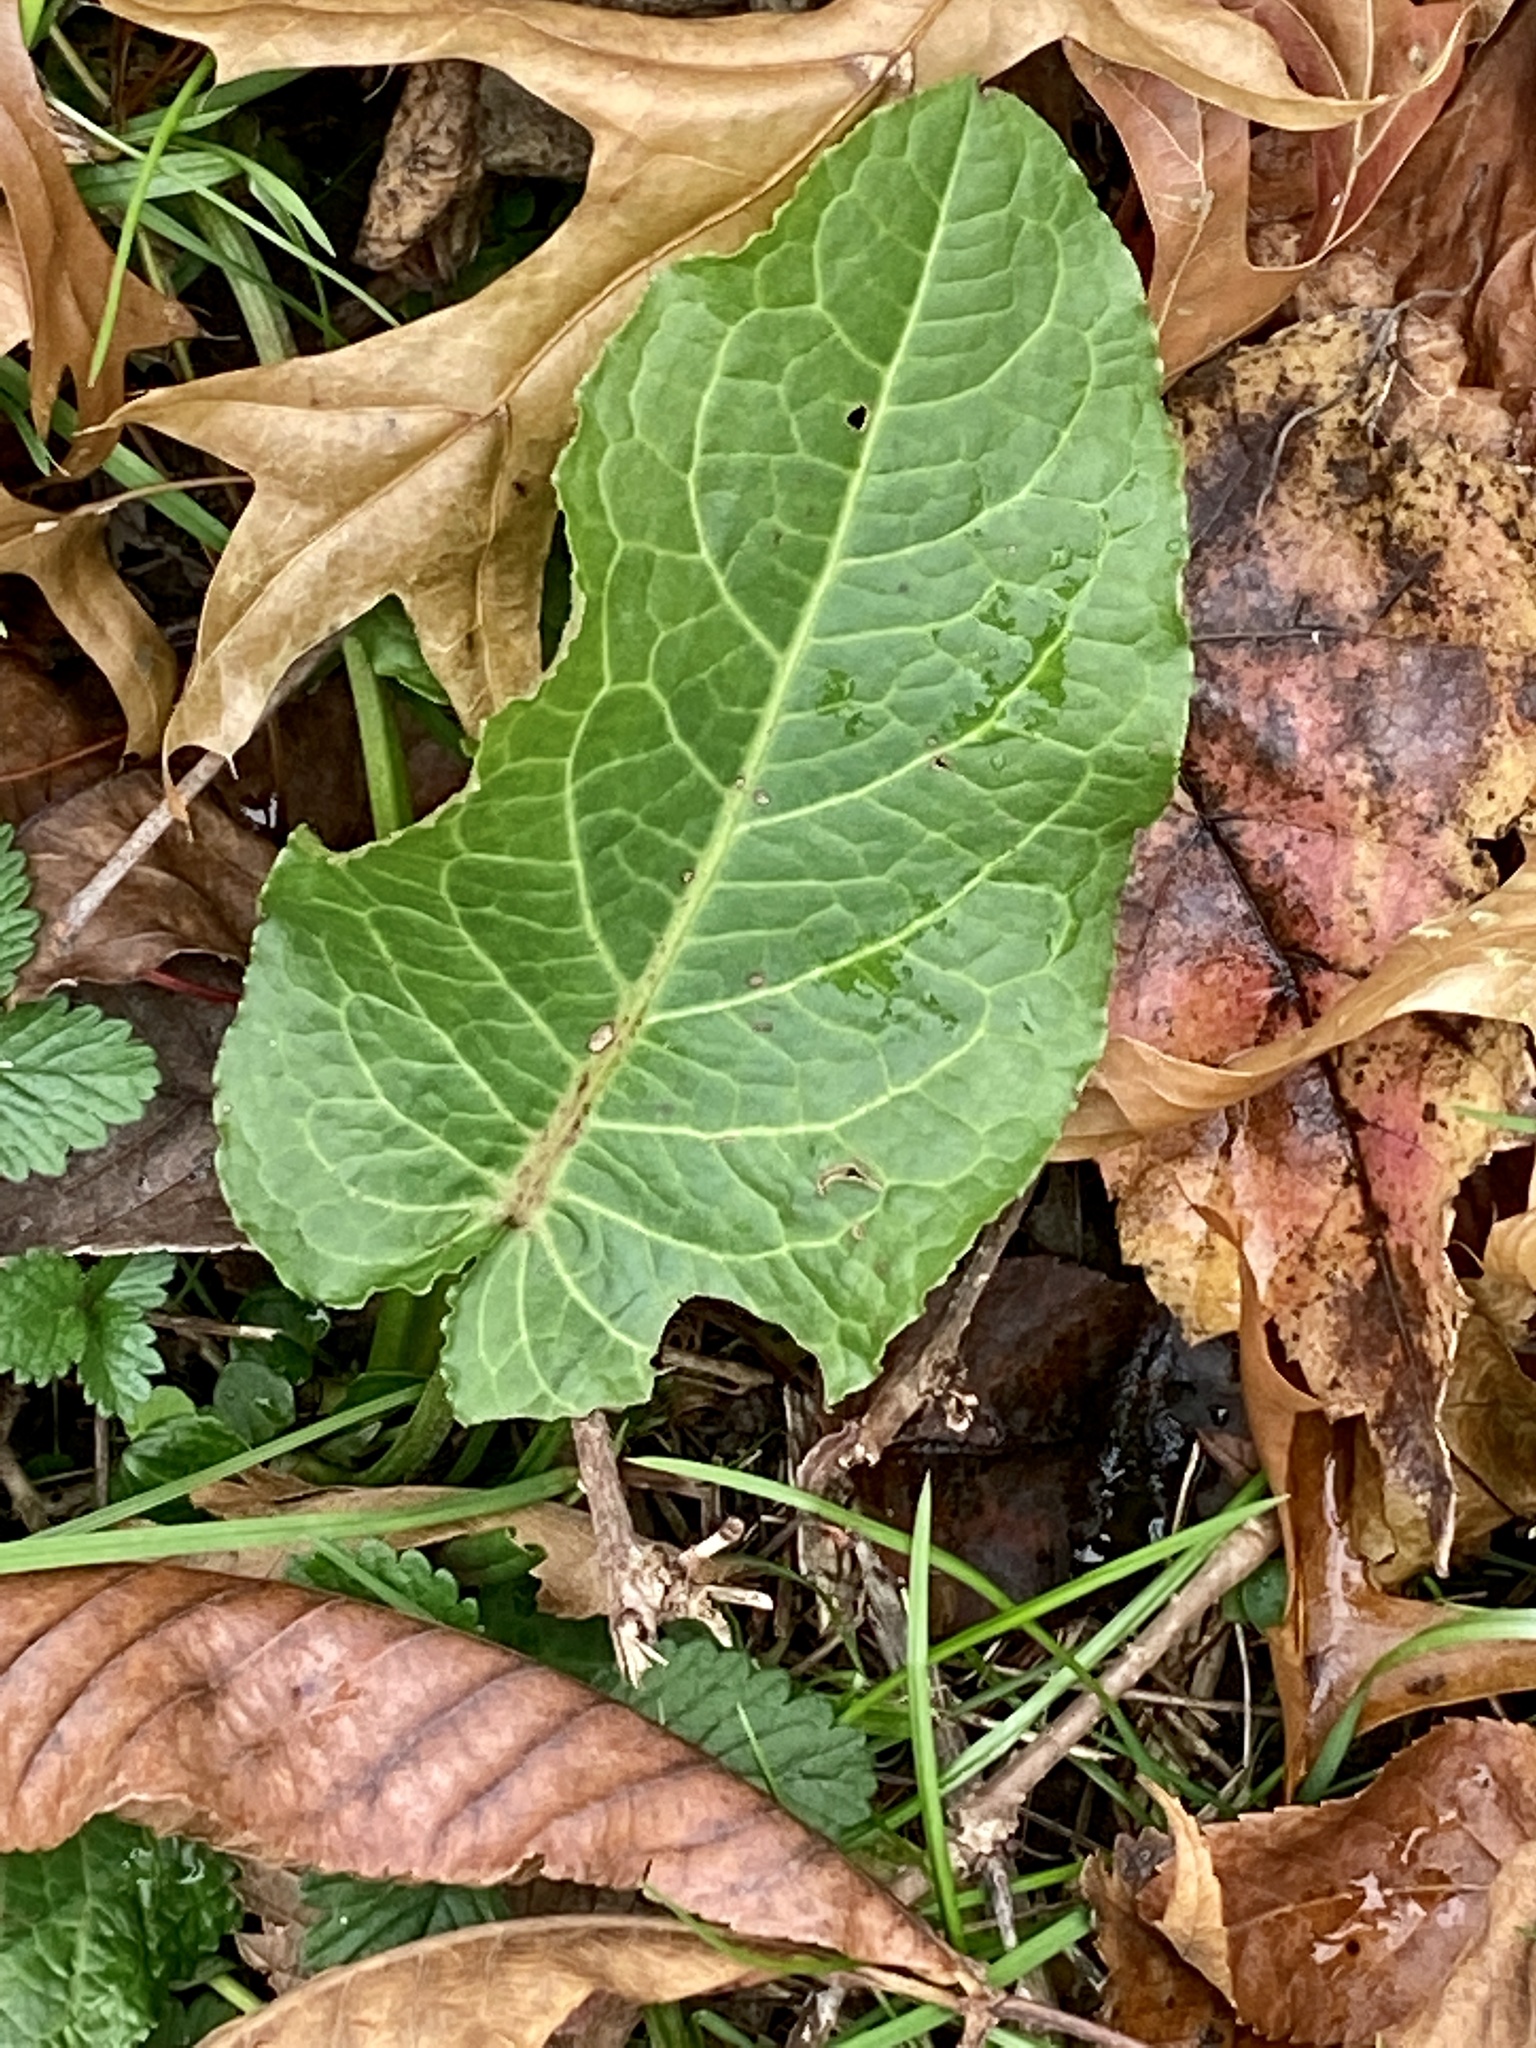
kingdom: Plantae
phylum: Tracheophyta
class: Magnoliopsida
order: Caryophyllales
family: Polygonaceae
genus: Rumex
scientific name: Rumex obtusifolius
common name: Bitter dock
